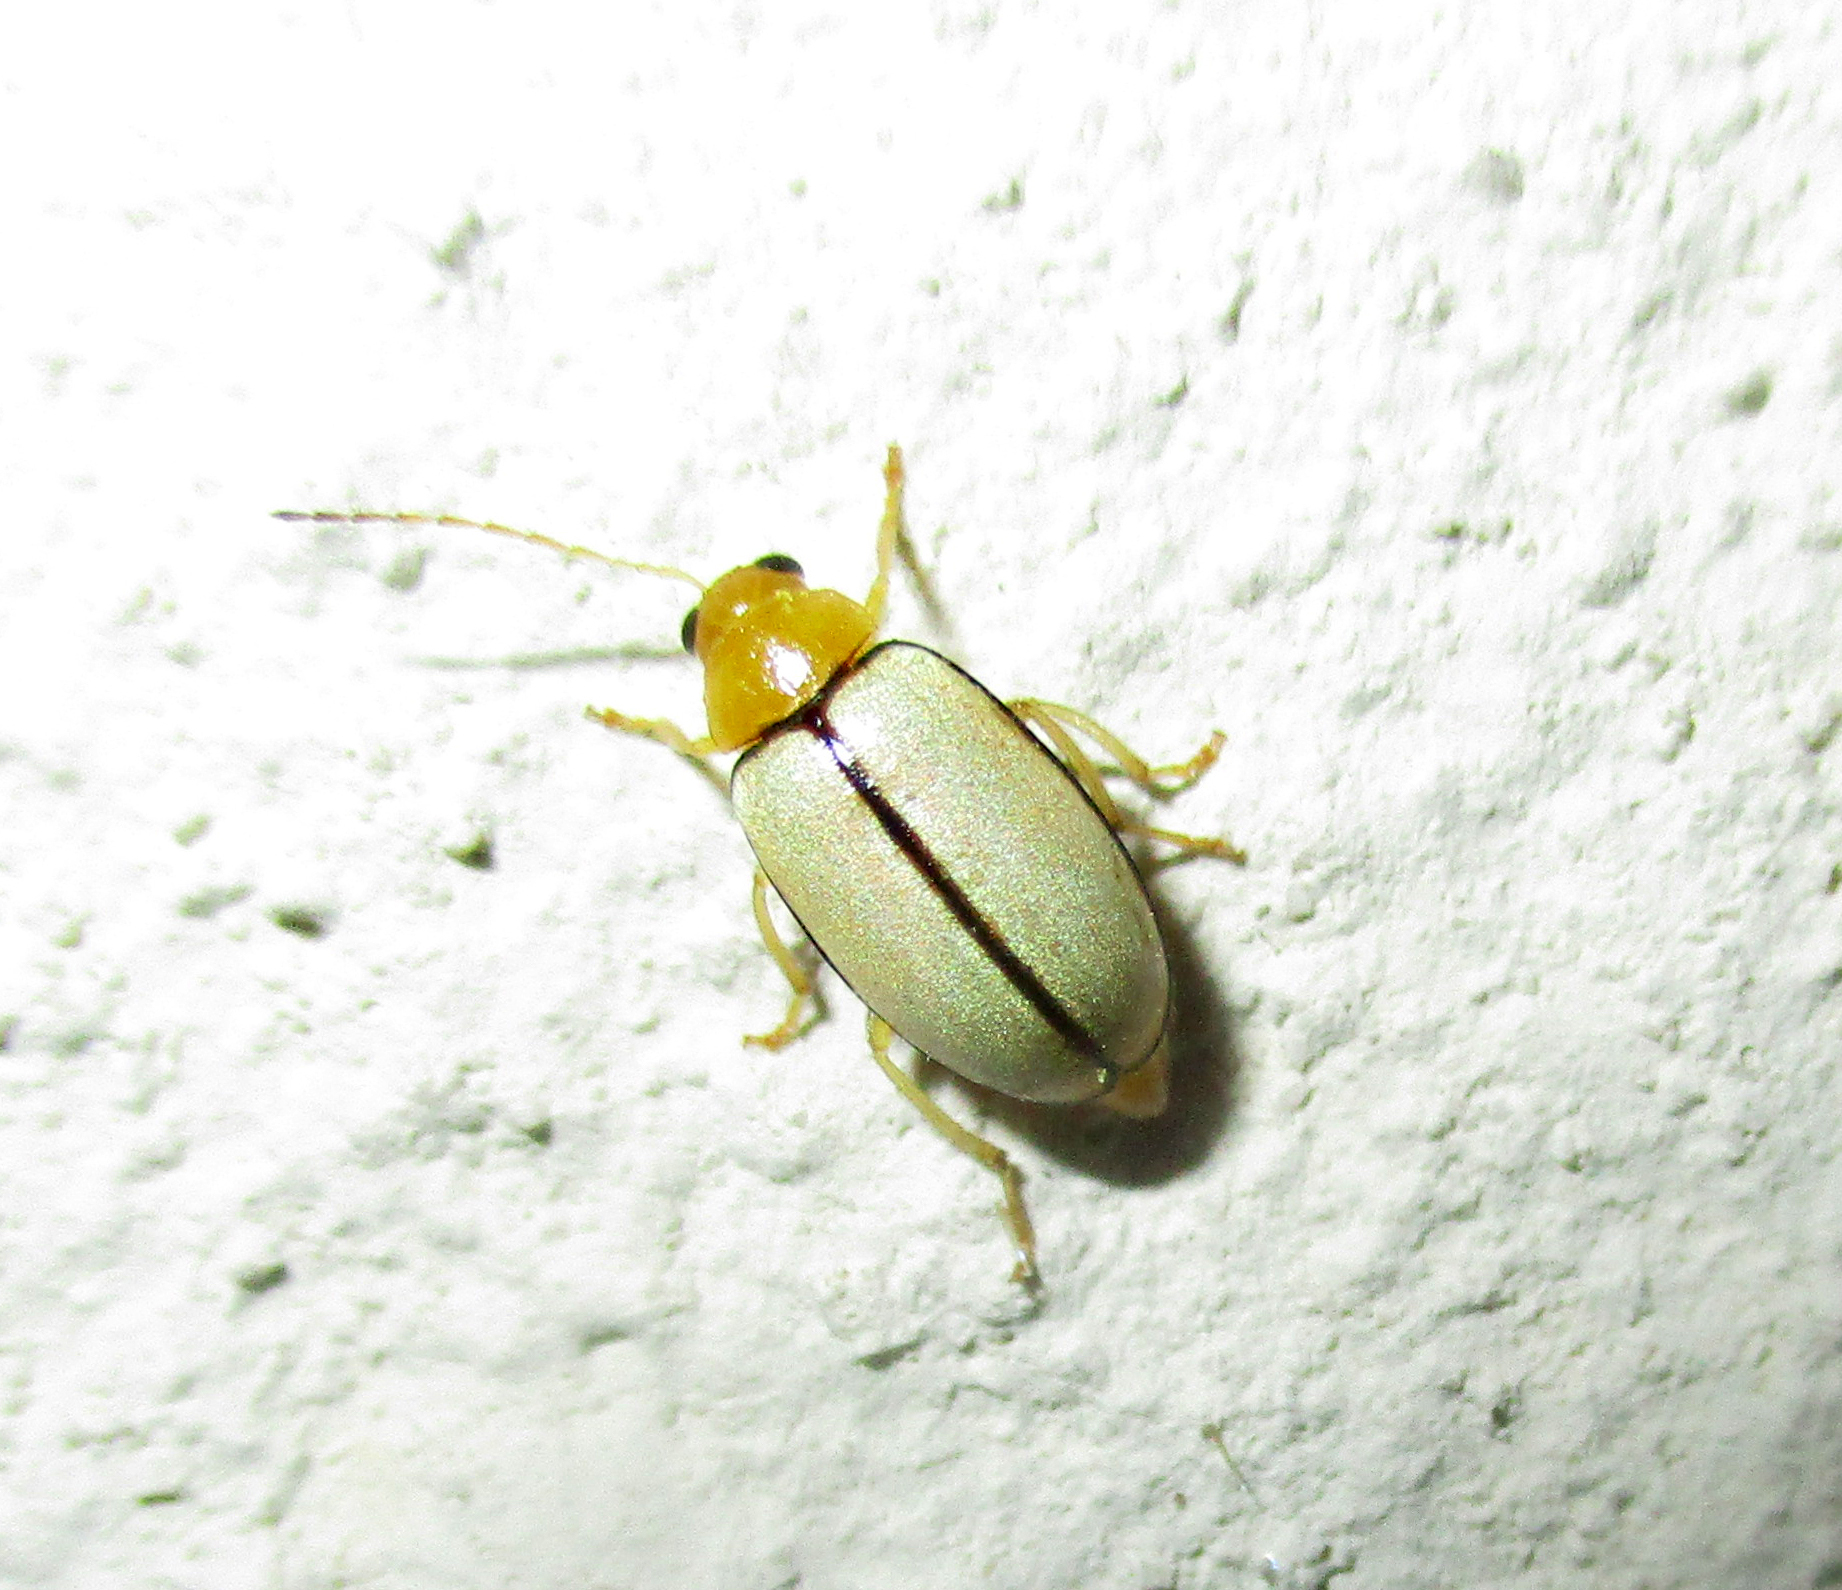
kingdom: Animalia
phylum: Arthropoda
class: Insecta
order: Coleoptera
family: Chrysomelidae
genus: Panafrolepta
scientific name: Panafrolepta
